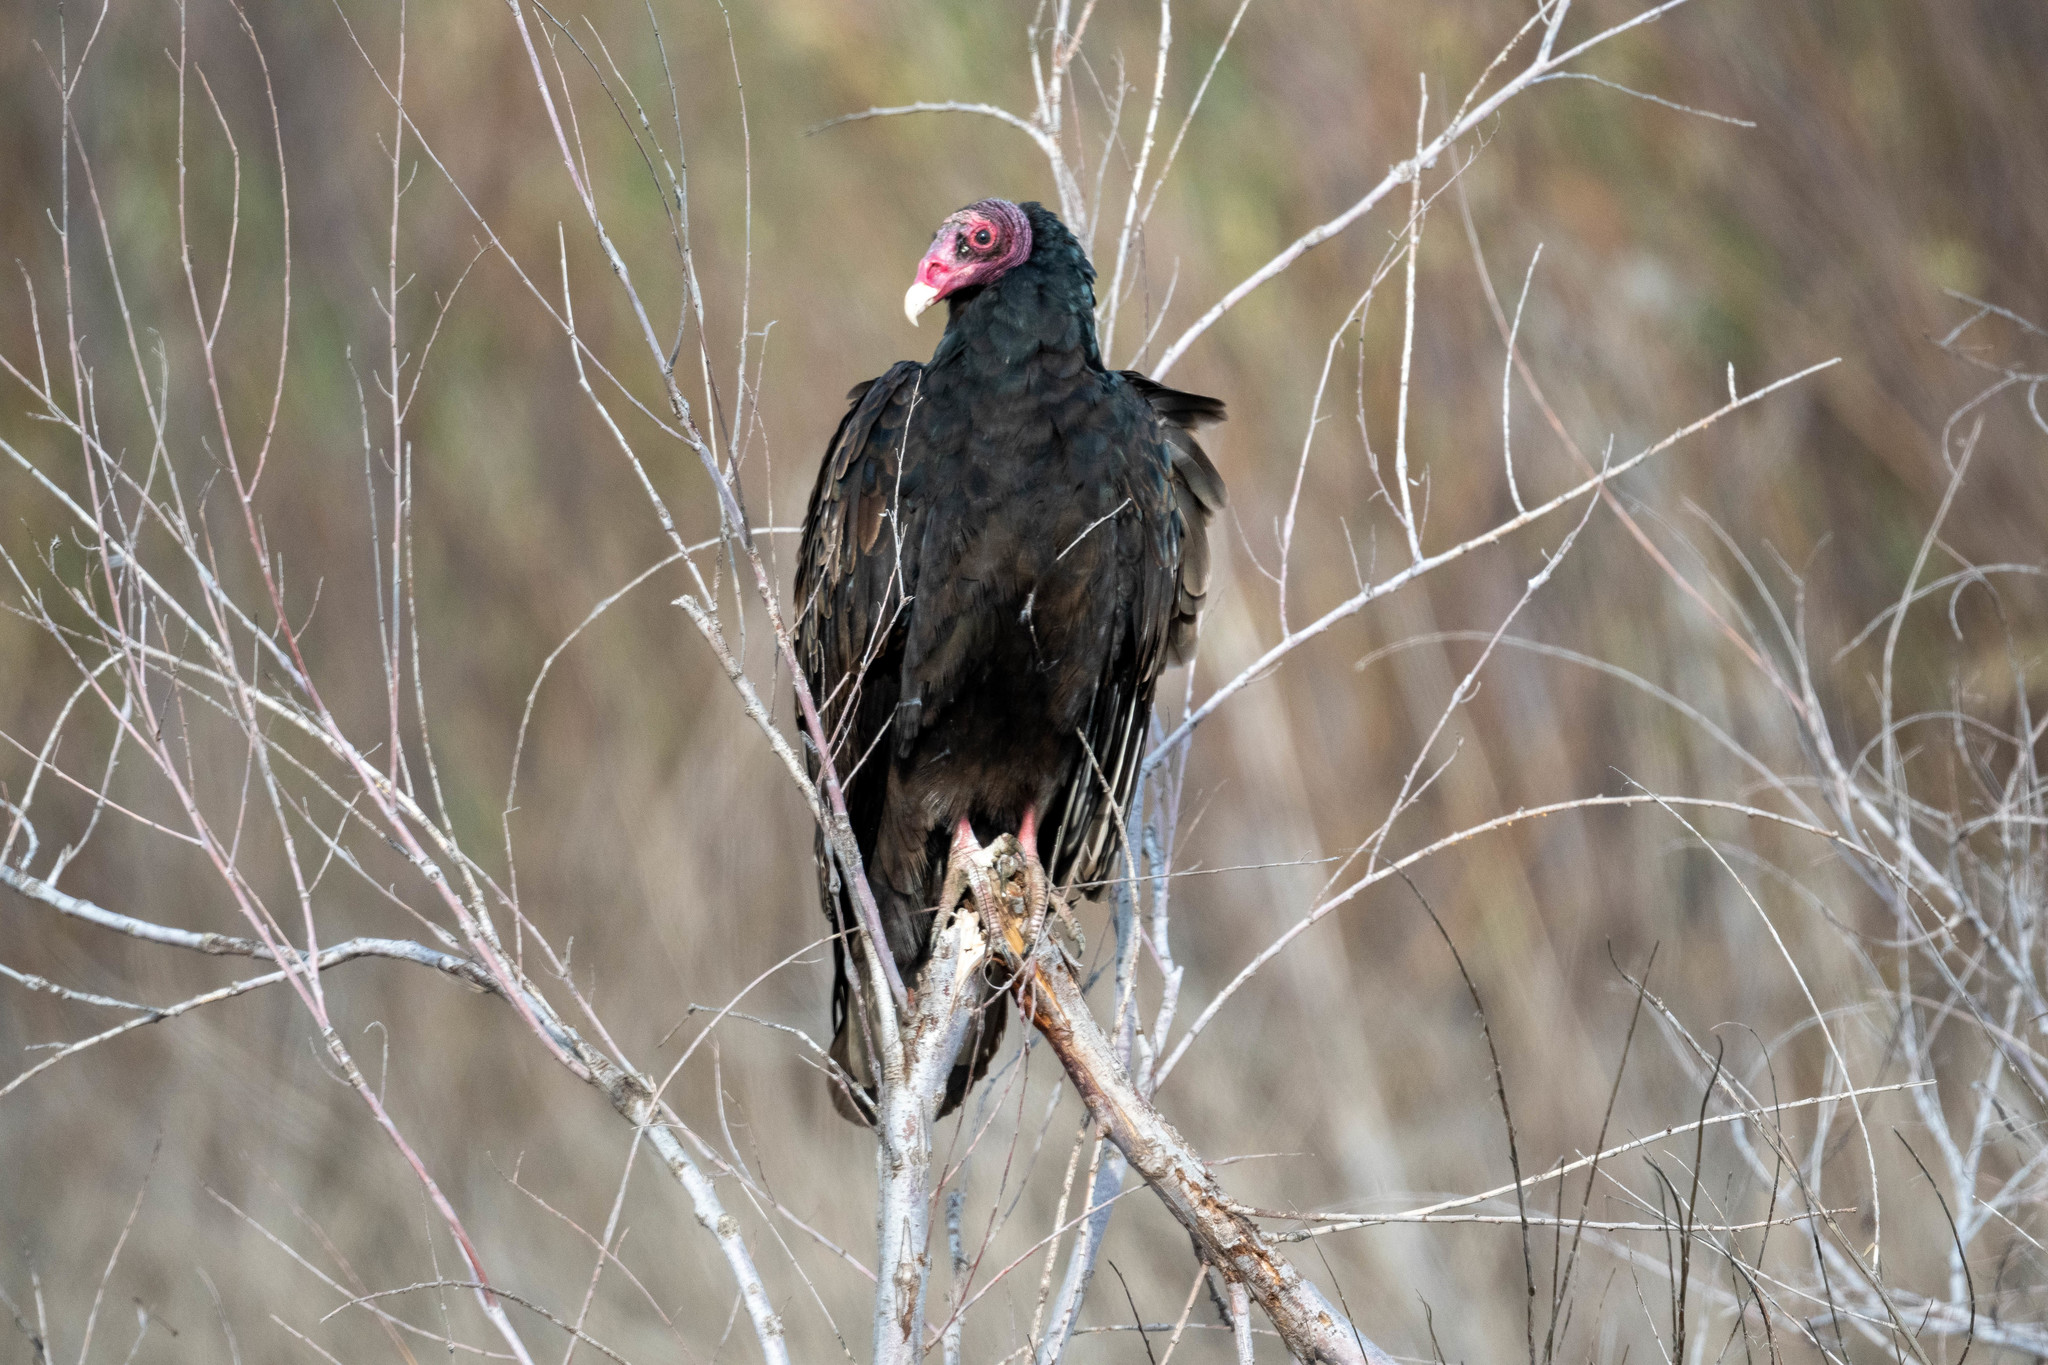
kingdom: Animalia
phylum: Chordata
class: Aves
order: Accipitriformes
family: Cathartidae
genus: Cathartes
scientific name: Cathartes aura
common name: Turkey vulture
